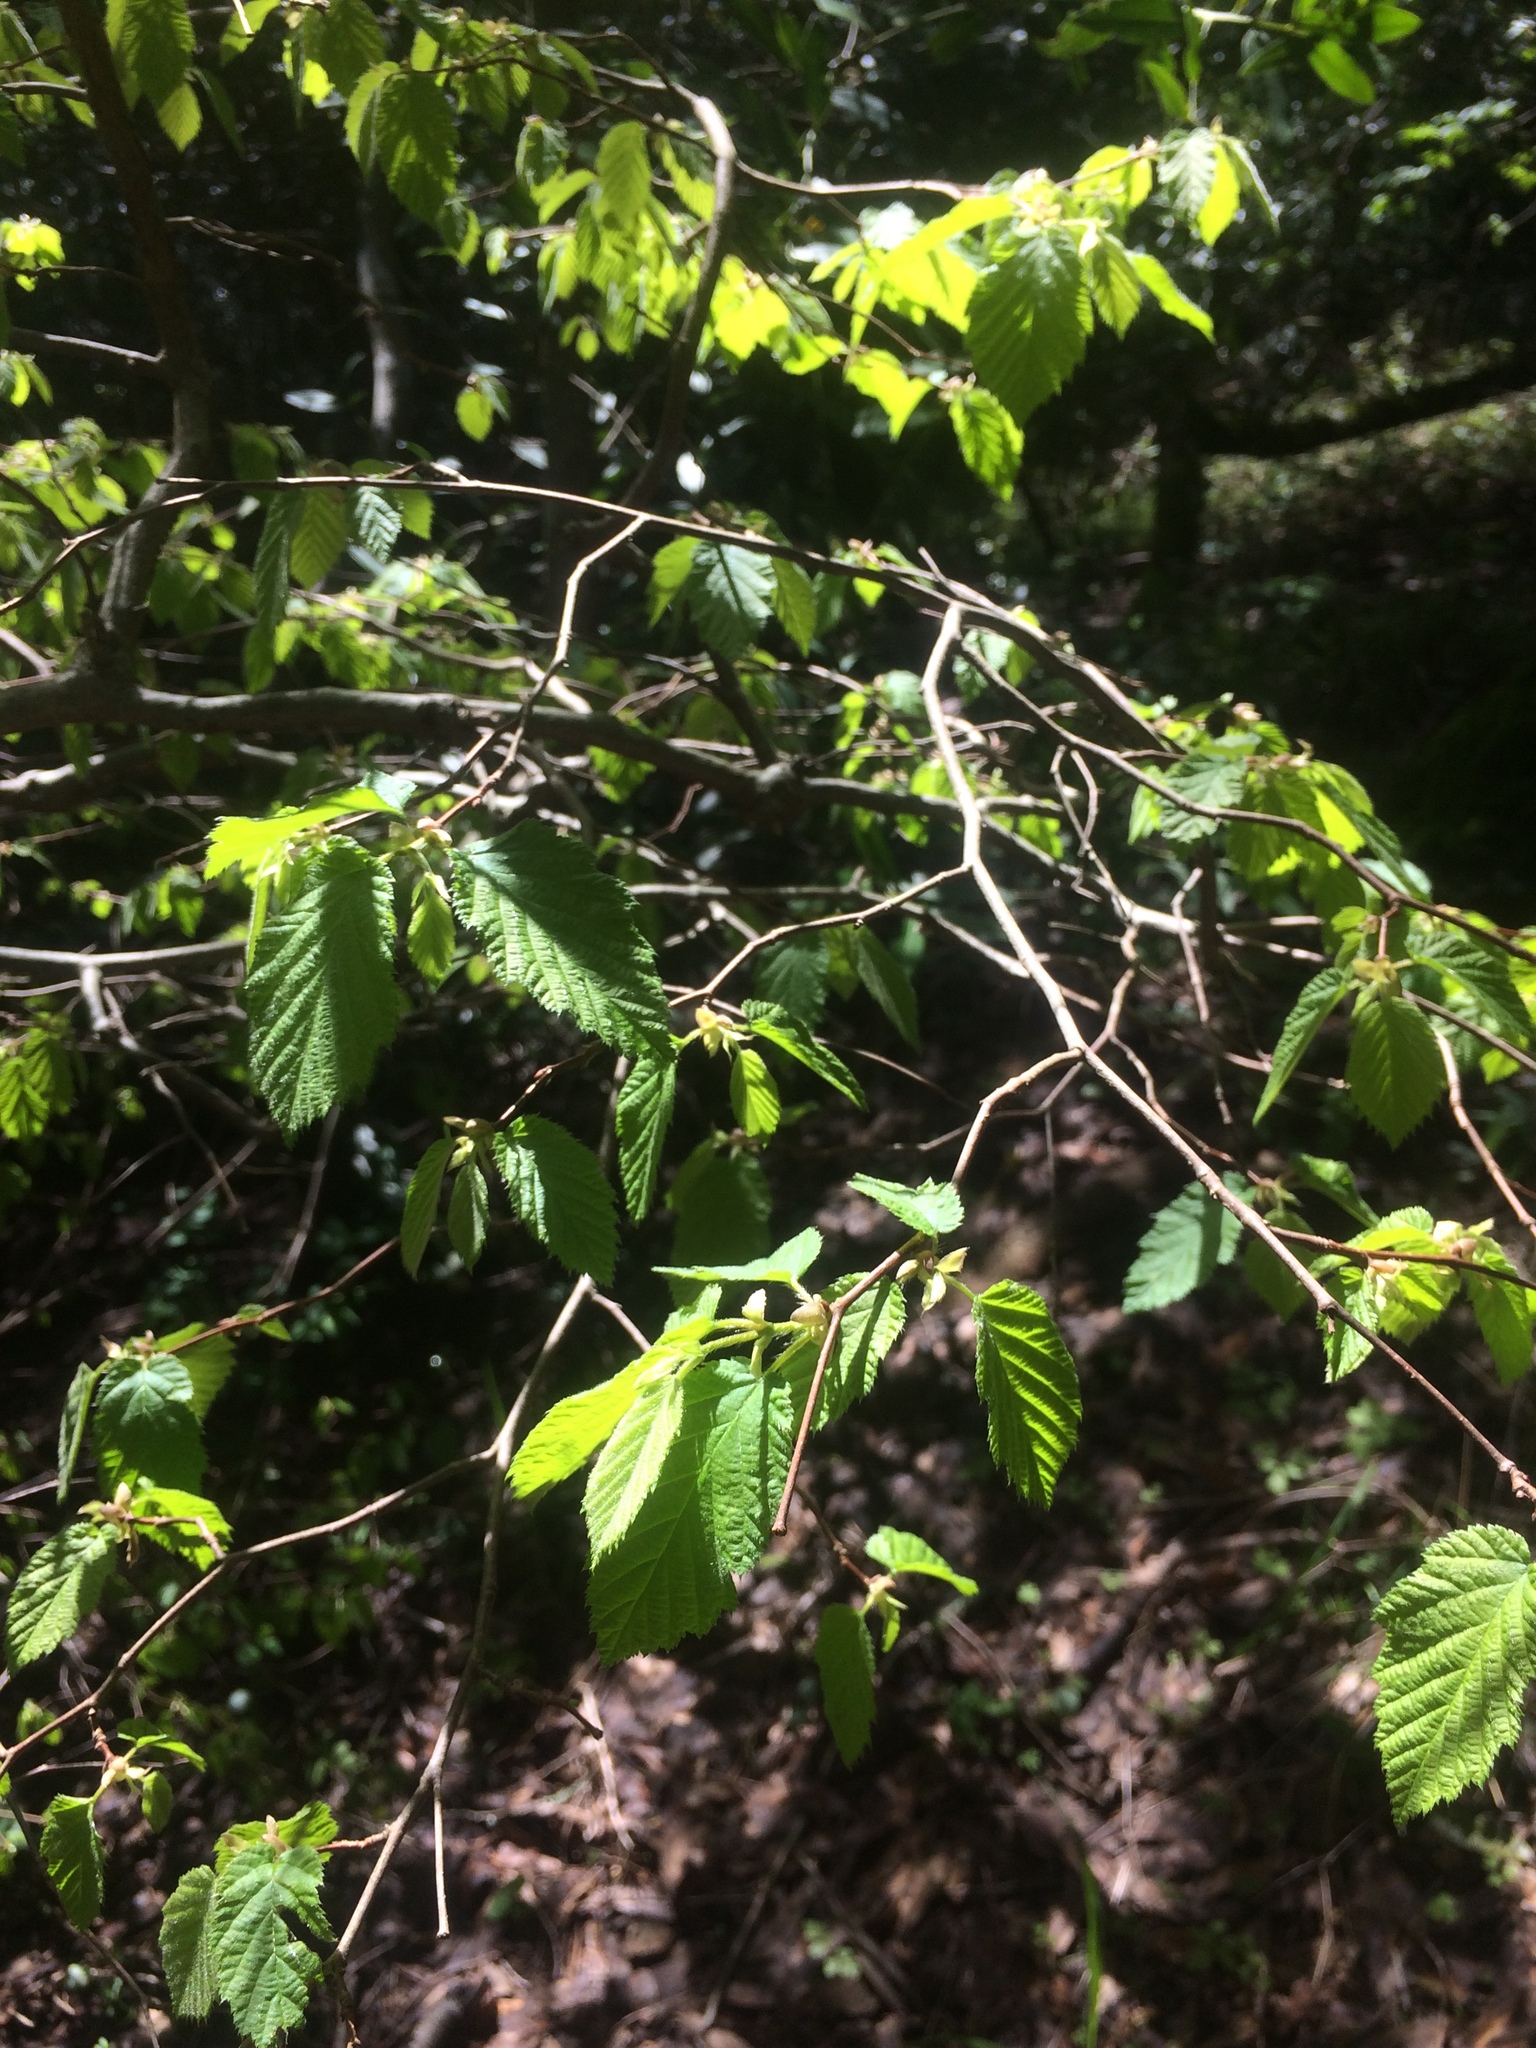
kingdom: Plantae
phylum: Tracheophyta
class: Magnoliopsida
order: Fagales
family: Betulaceae
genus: Corylus
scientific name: Corylus cornuta
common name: Beaked hazel
